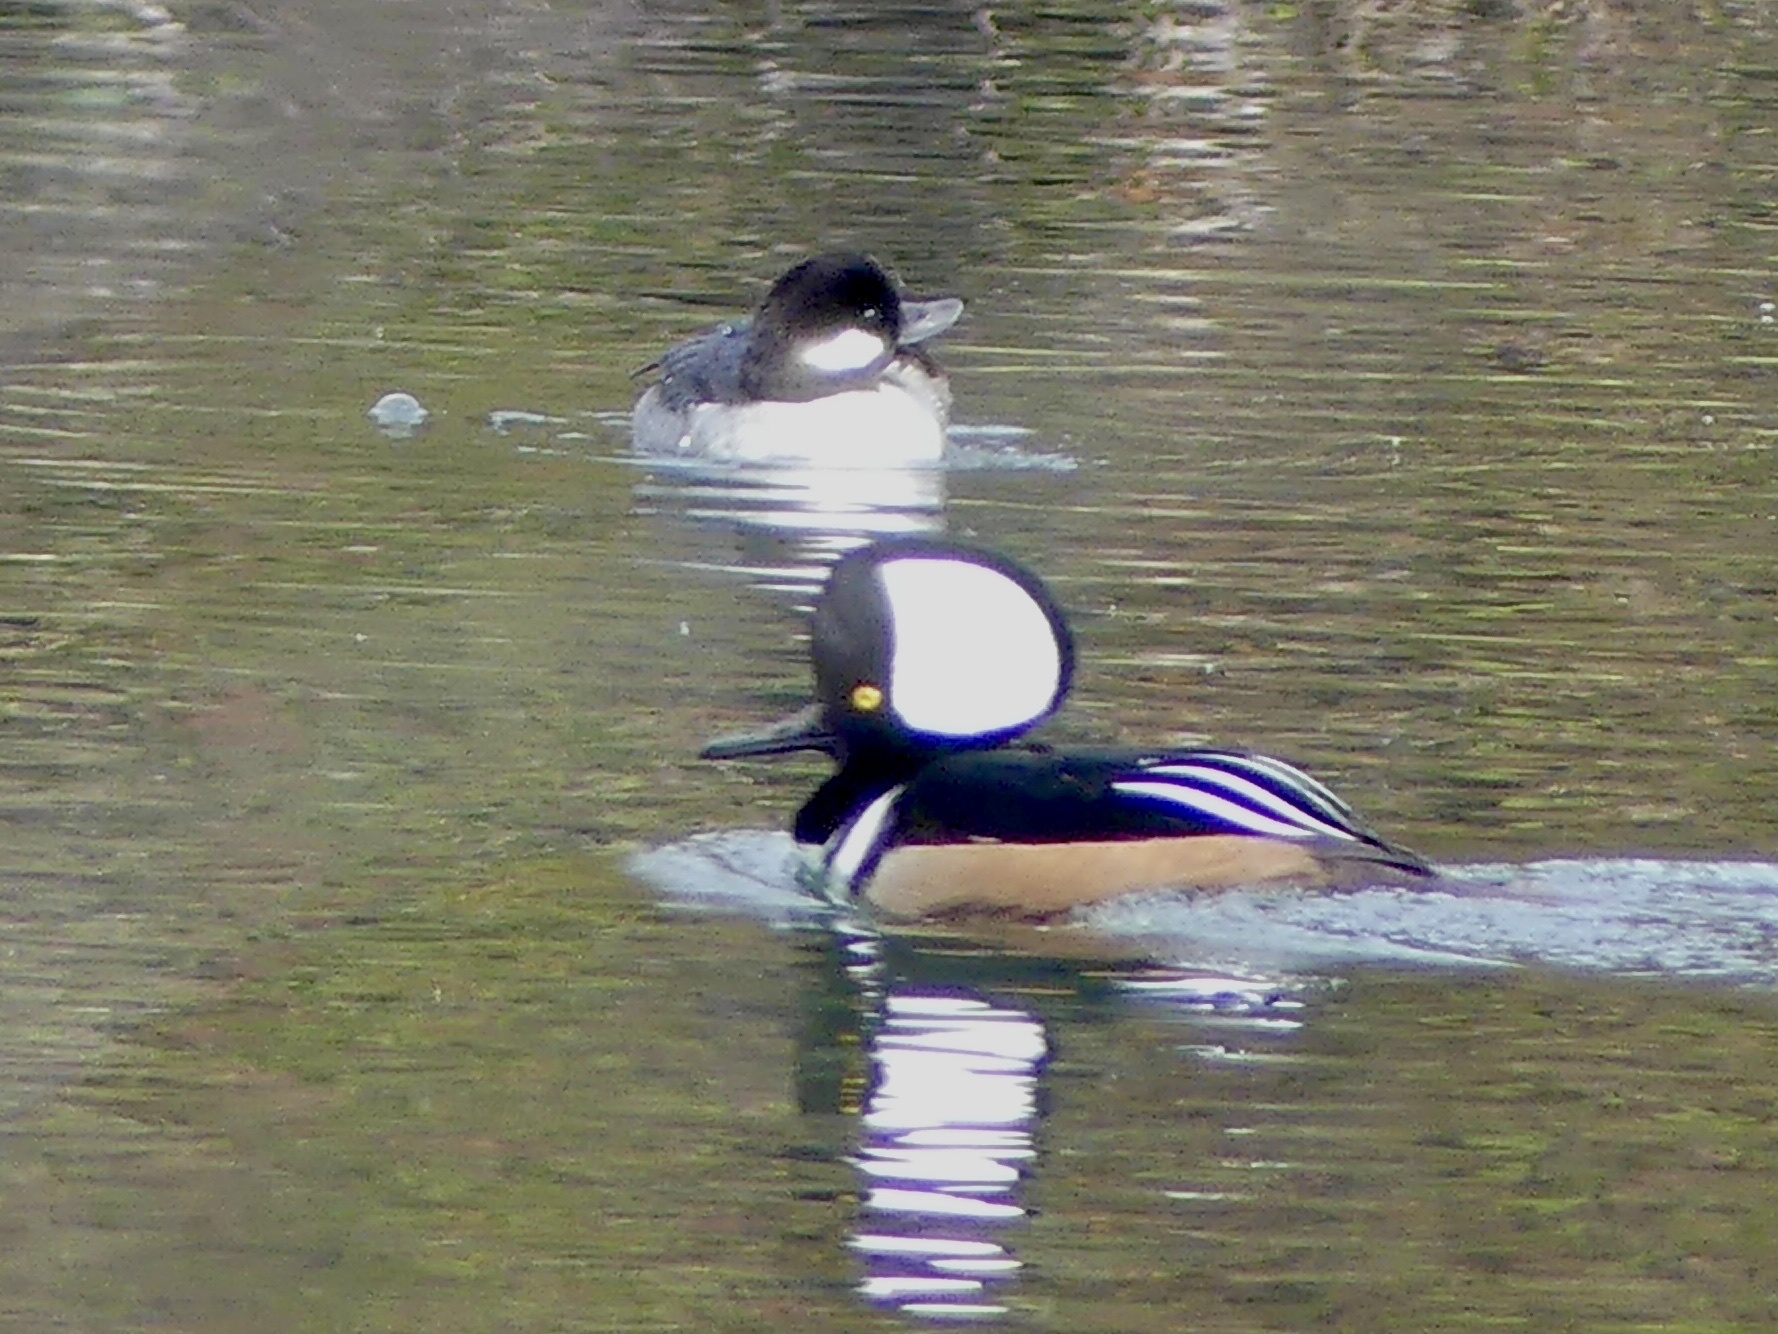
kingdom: Animalia
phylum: Chordata
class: Aves
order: Anseriformes
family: Anatidae
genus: Lophodytes
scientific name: Lophodytes cucullatus
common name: Hooded merganser
